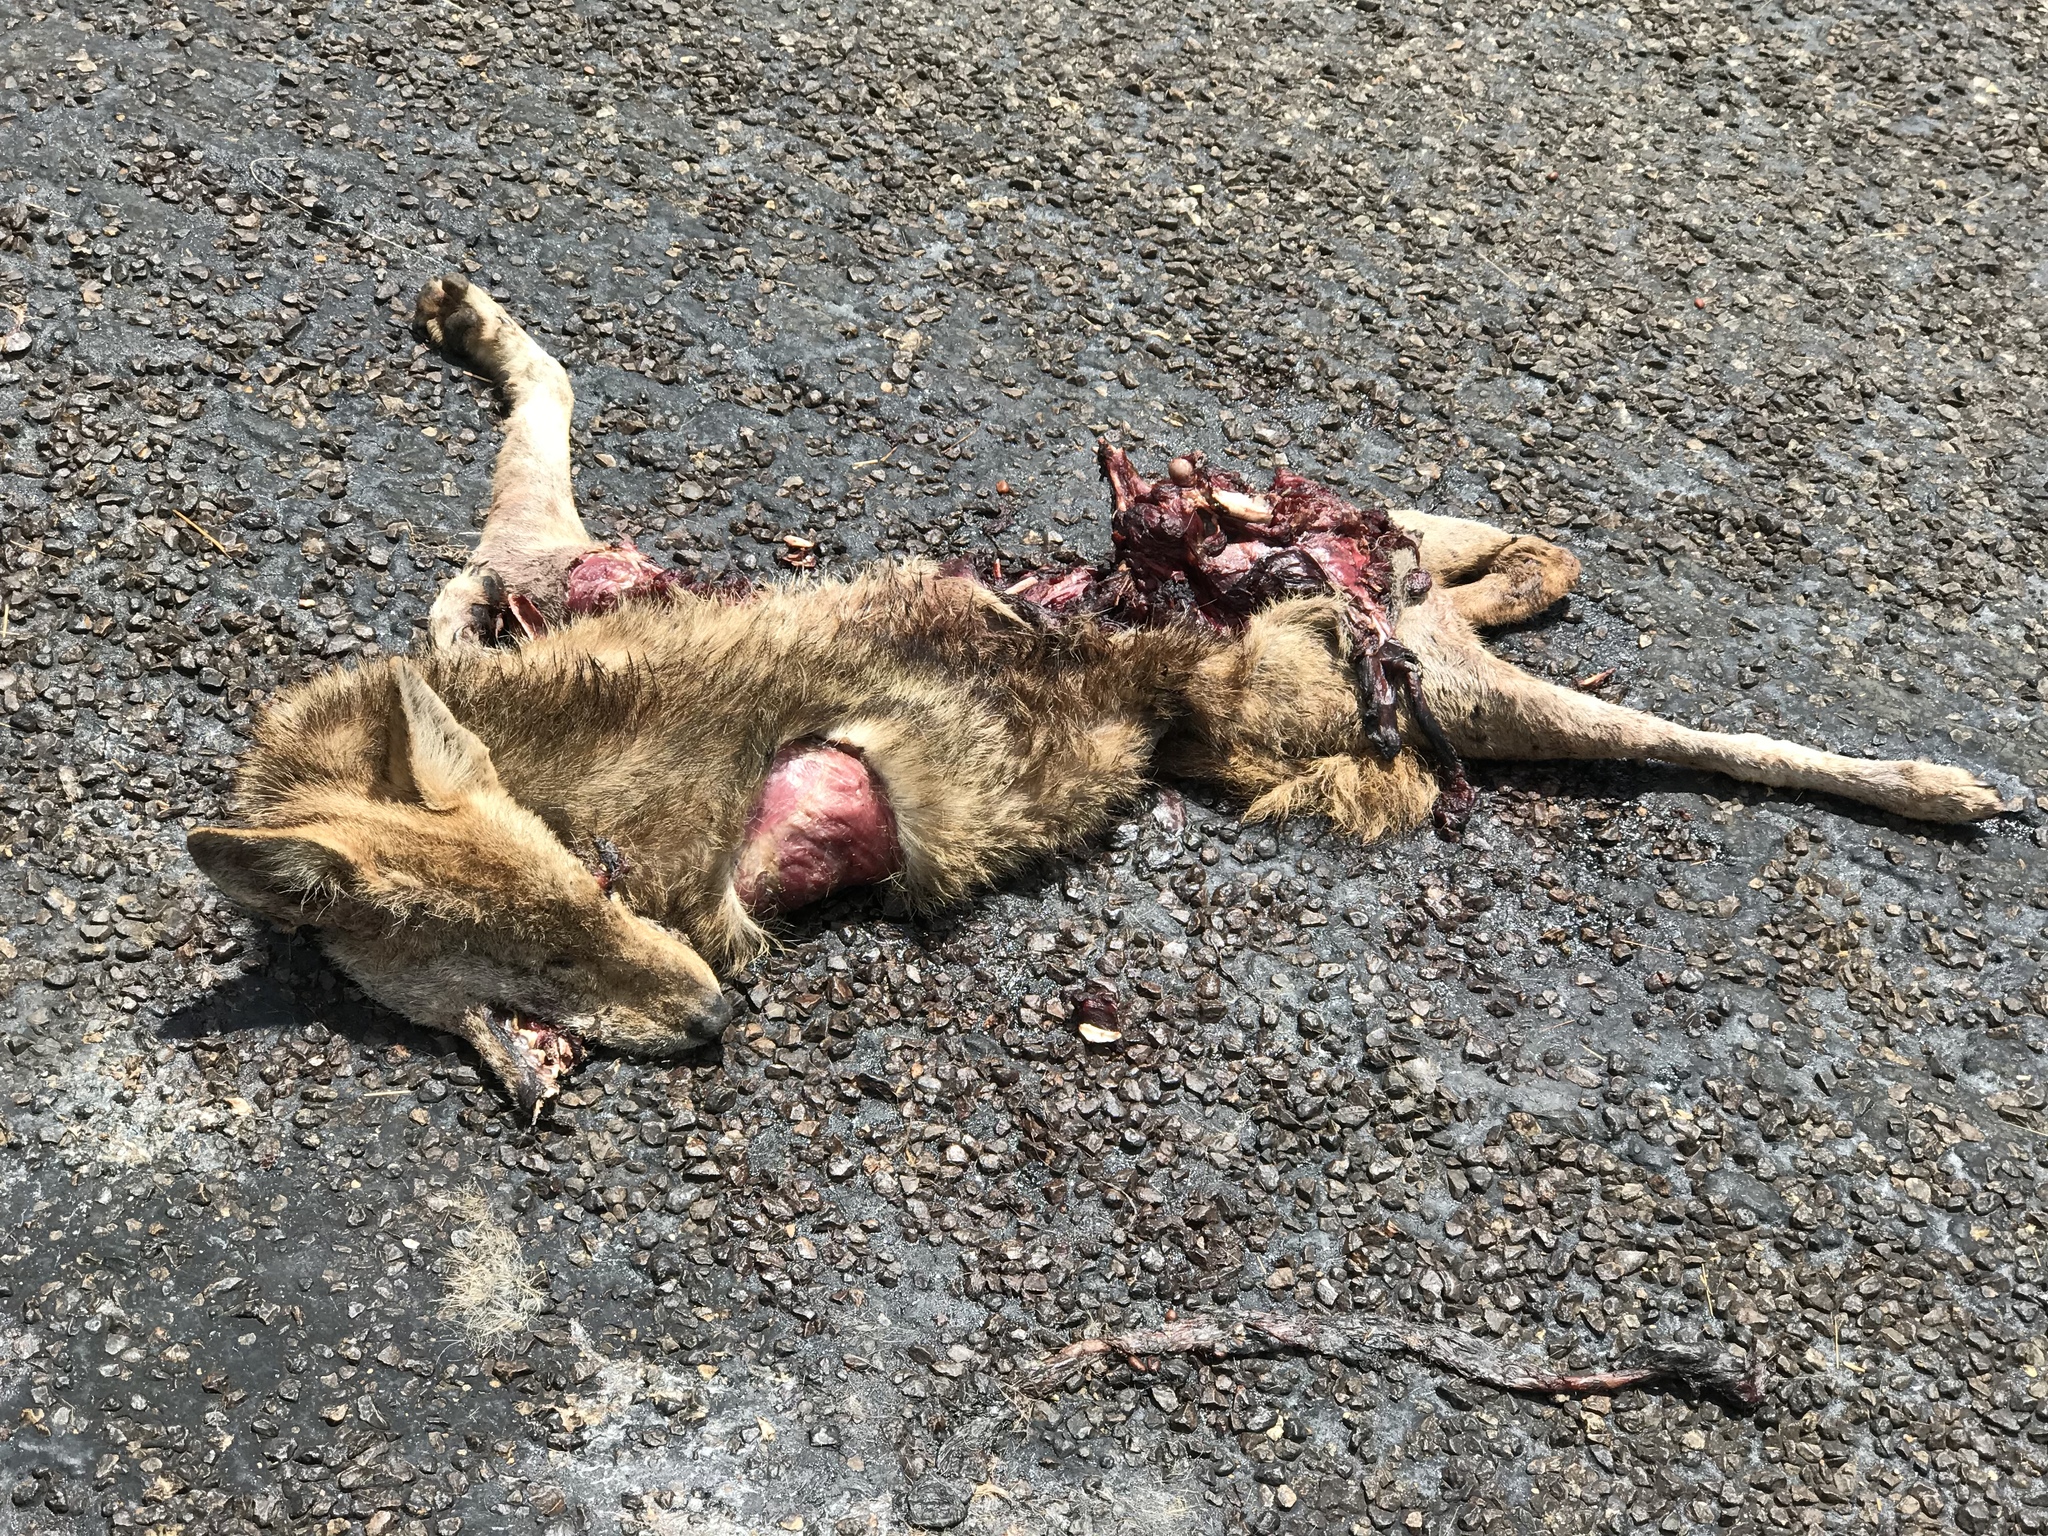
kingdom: Animalia
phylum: Chordata
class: Mammalia
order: Carnivora
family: Canidae
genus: Canis
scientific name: Canis latrans
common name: Coyote
